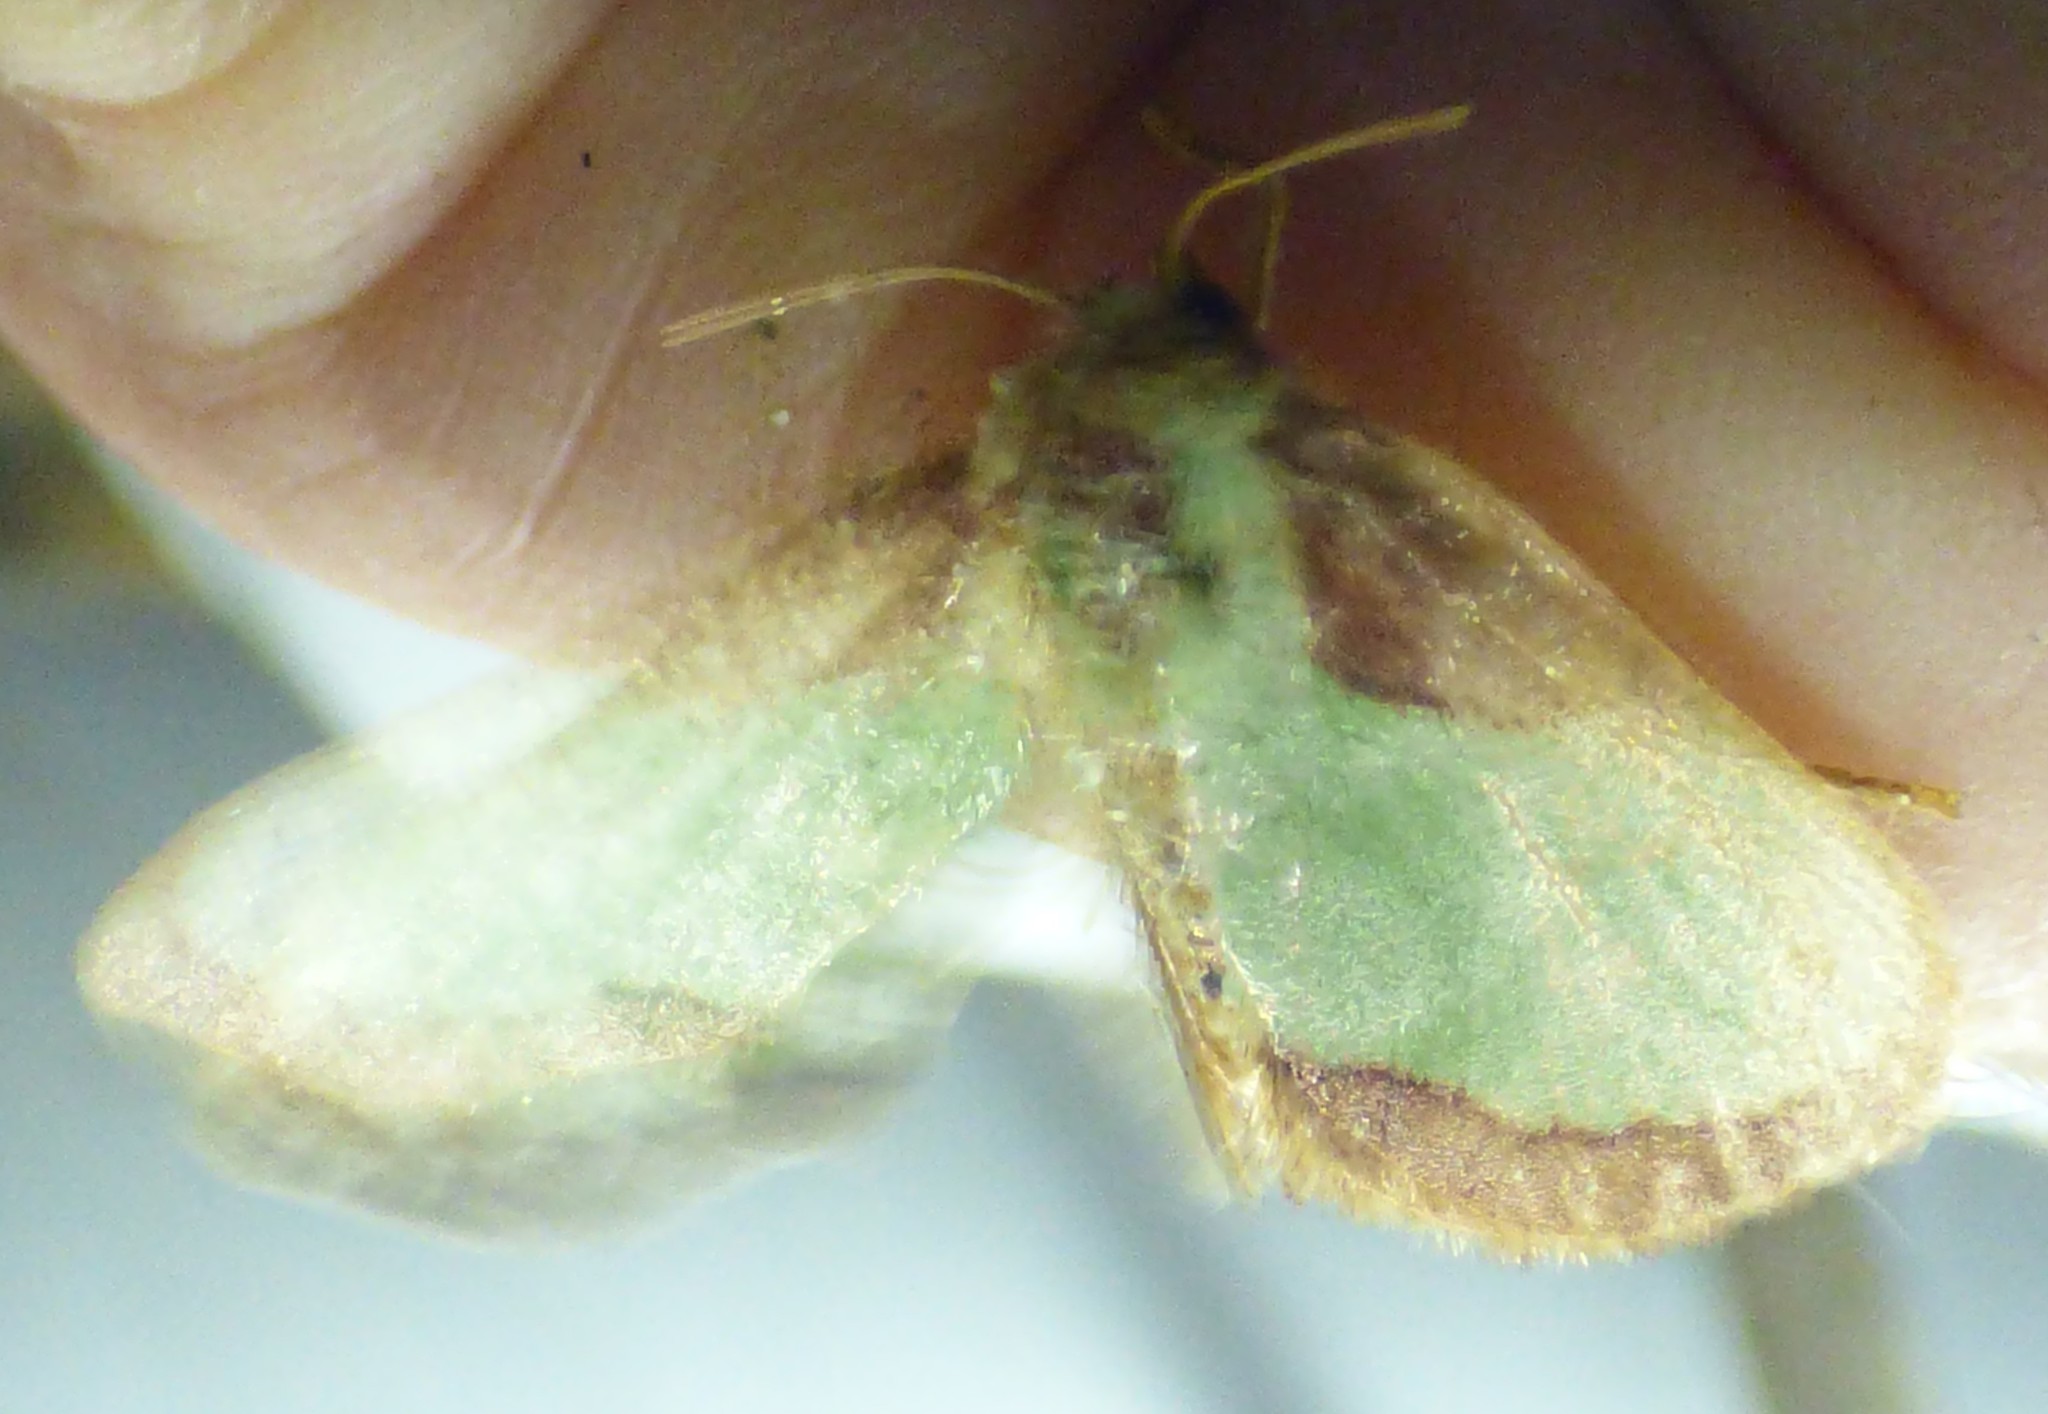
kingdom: Animalia
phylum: Arthropoda
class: Insecta
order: Lepidoptera
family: Limacodidae
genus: Parasa
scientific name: Parasa indetermina
